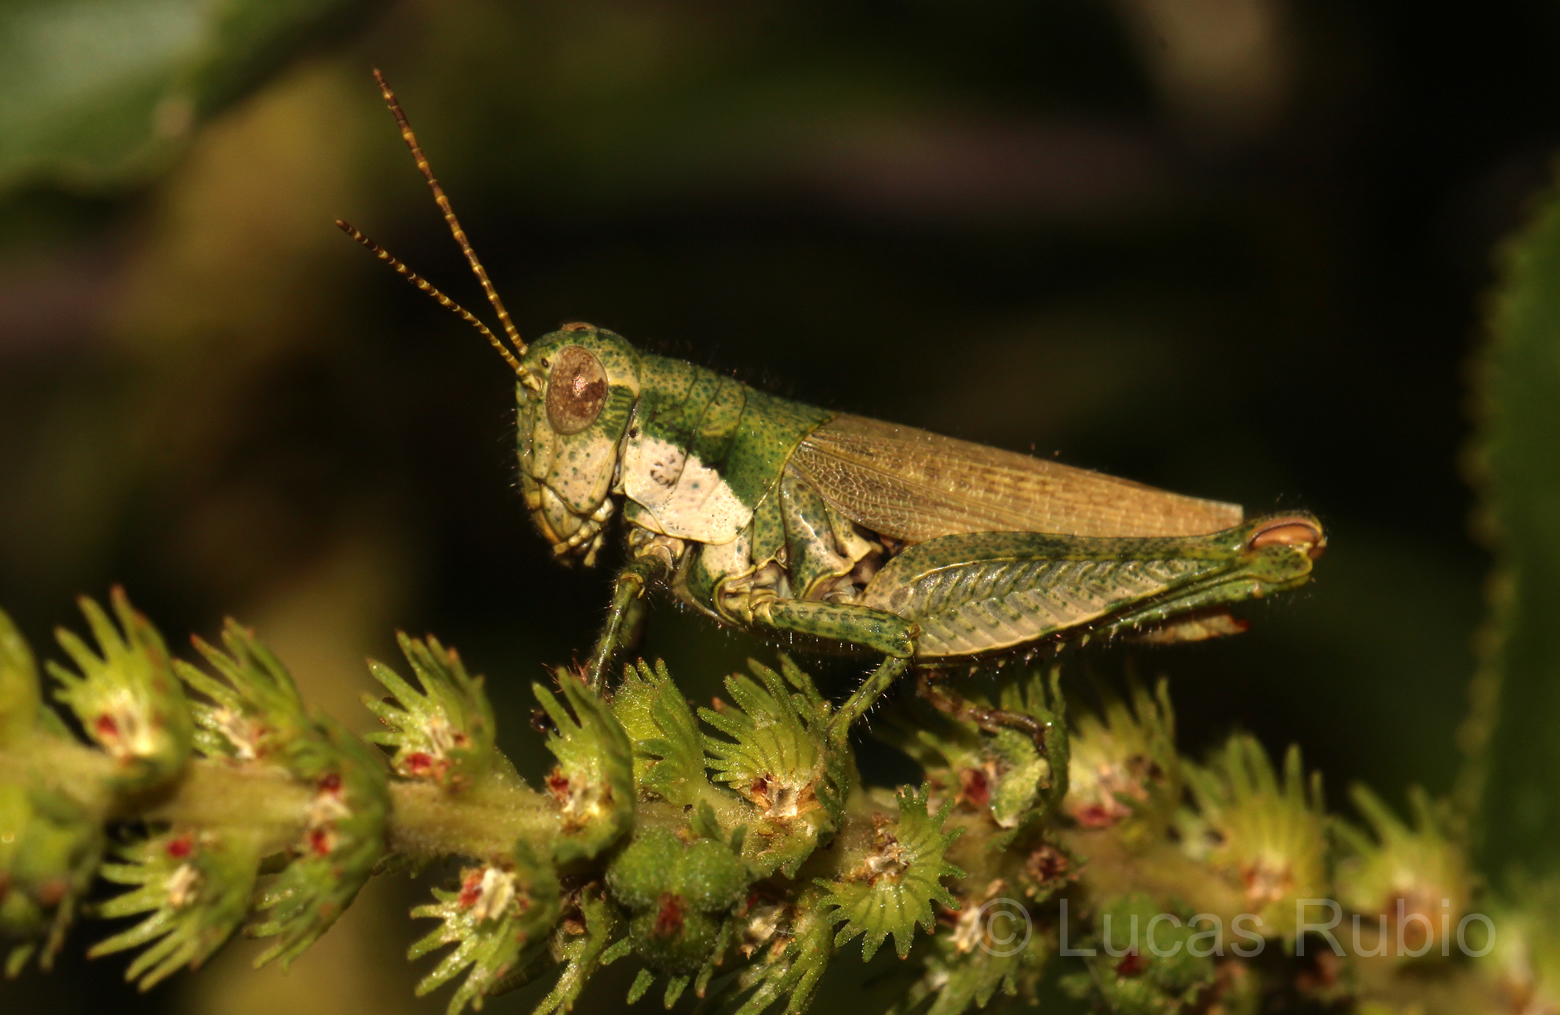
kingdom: Animalia
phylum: Arthropoda
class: Insecta
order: Orthoptera
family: Acrididae
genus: Ronderosia
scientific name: Ronderosia bergii
